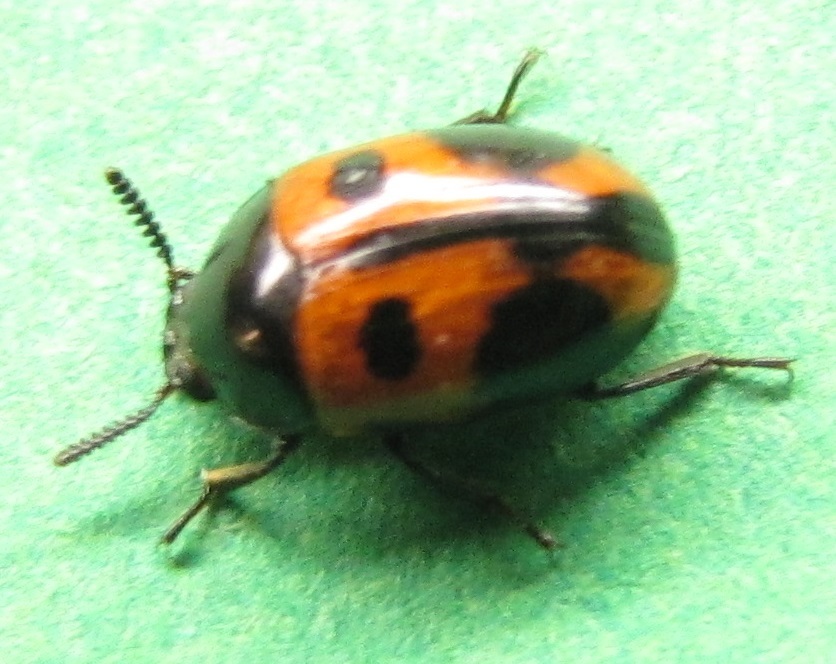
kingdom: Animalia
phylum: Arthropoda
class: Insecta
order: Coleoptera
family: Tenebrionidae
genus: Diaperis
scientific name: Diaperis maculata
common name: Darkling beetle
